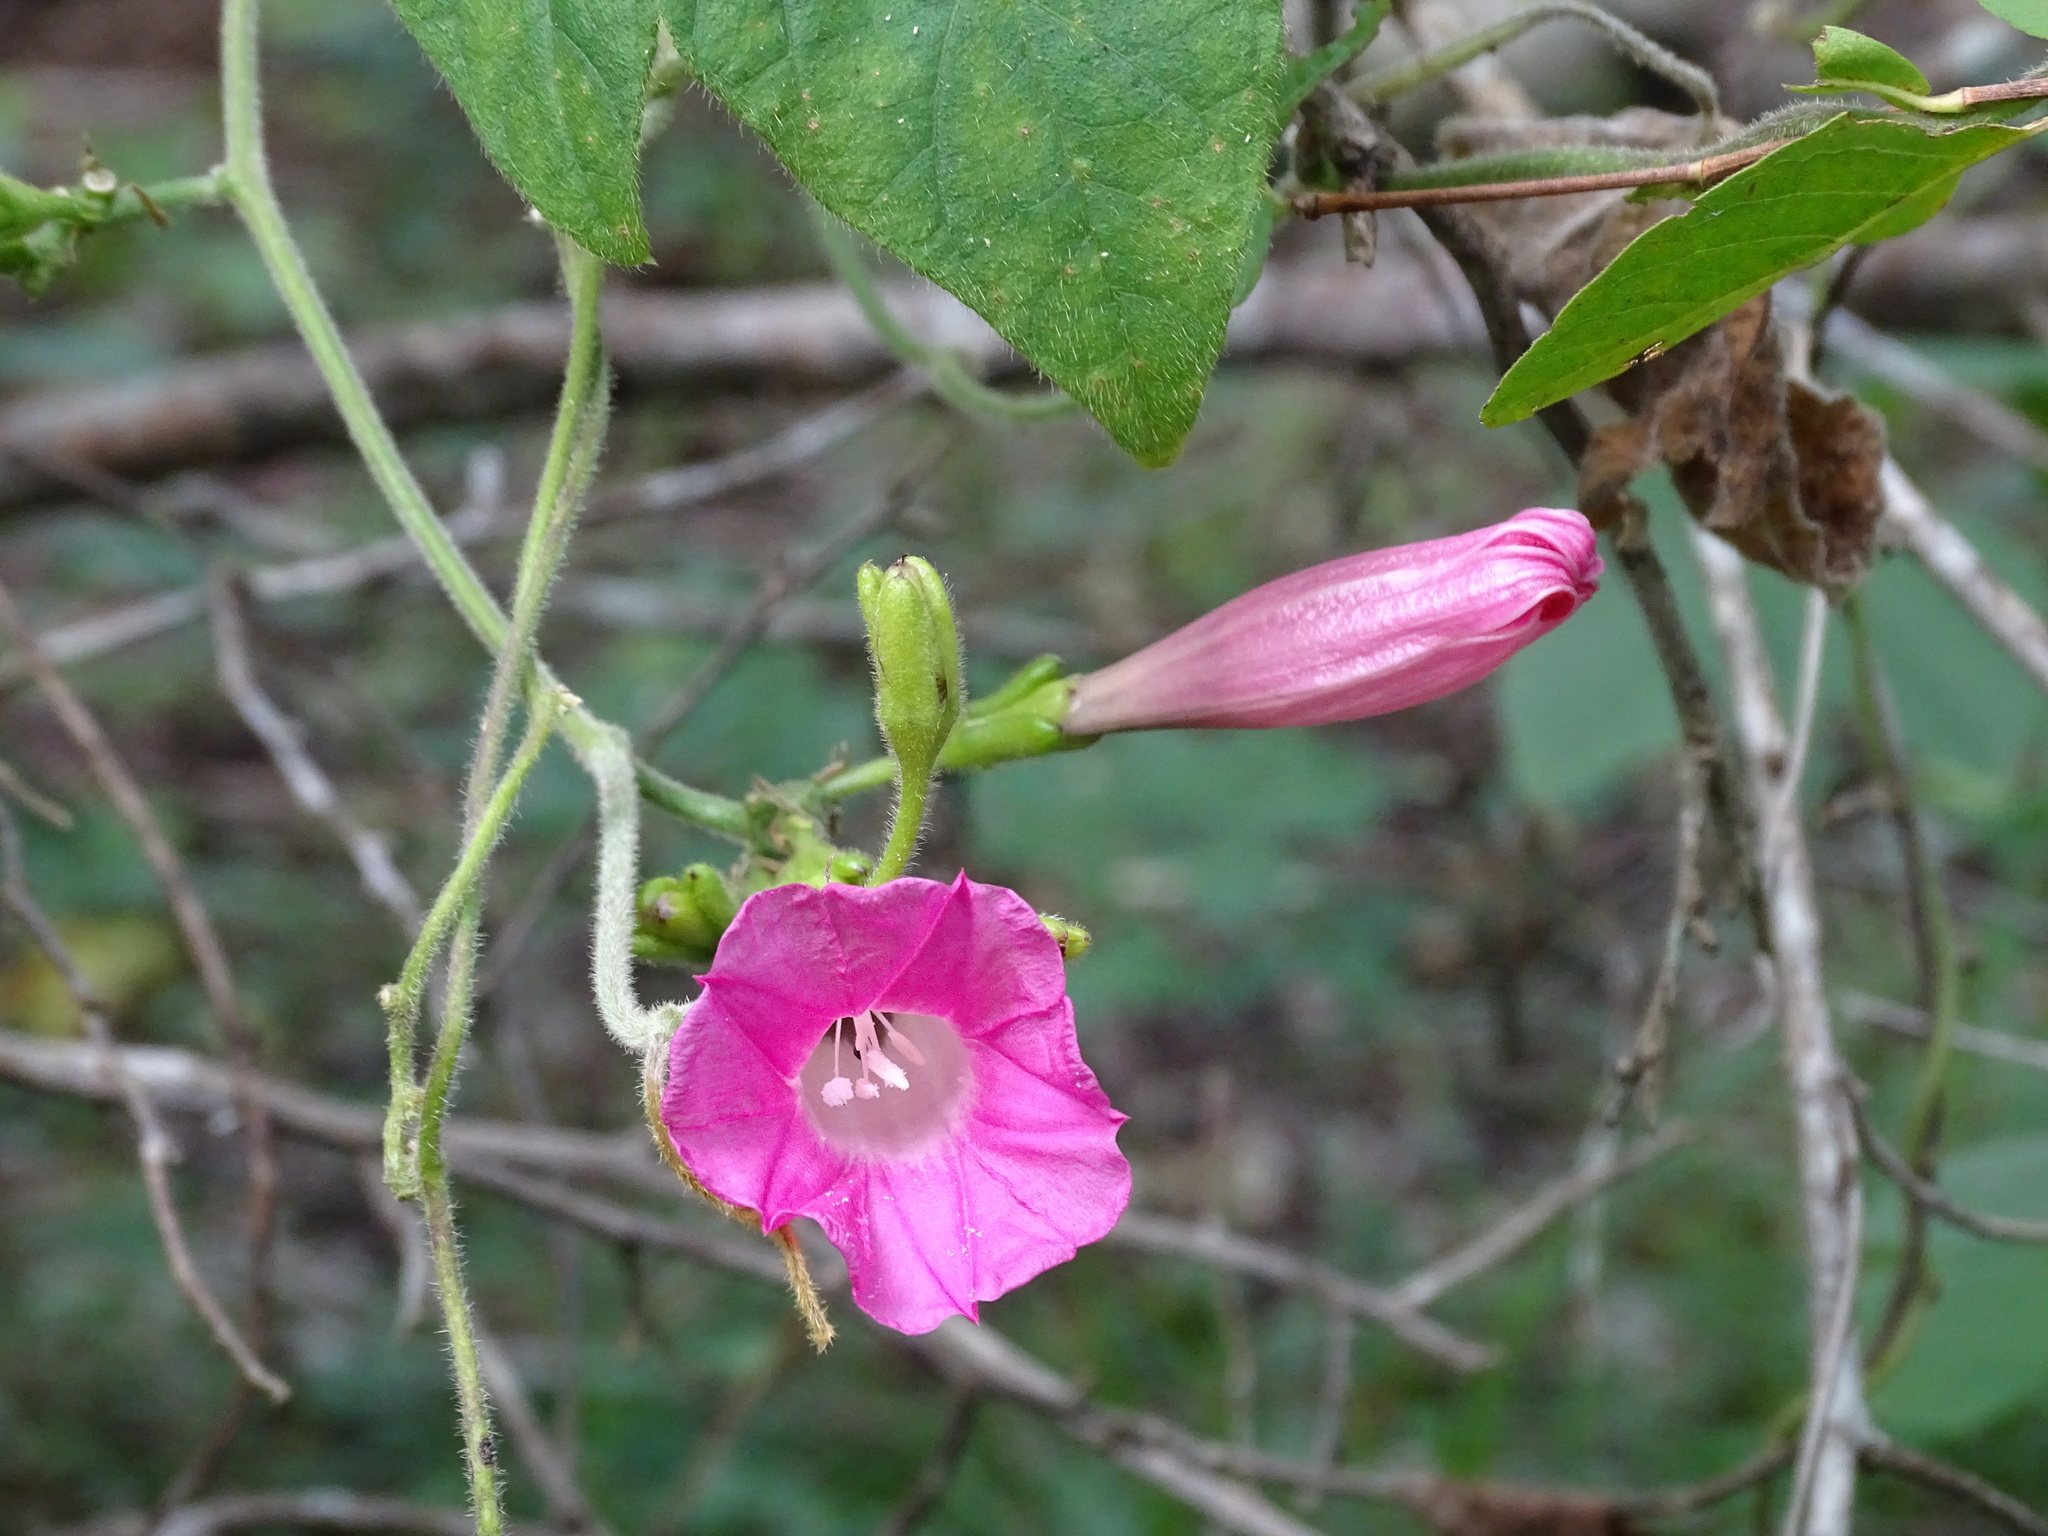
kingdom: Plantae
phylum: Tracheophyta
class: Magnoliopsida
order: Solanales
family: Convolvulaceae
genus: Ipomoea
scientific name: Ipomoea peteri
